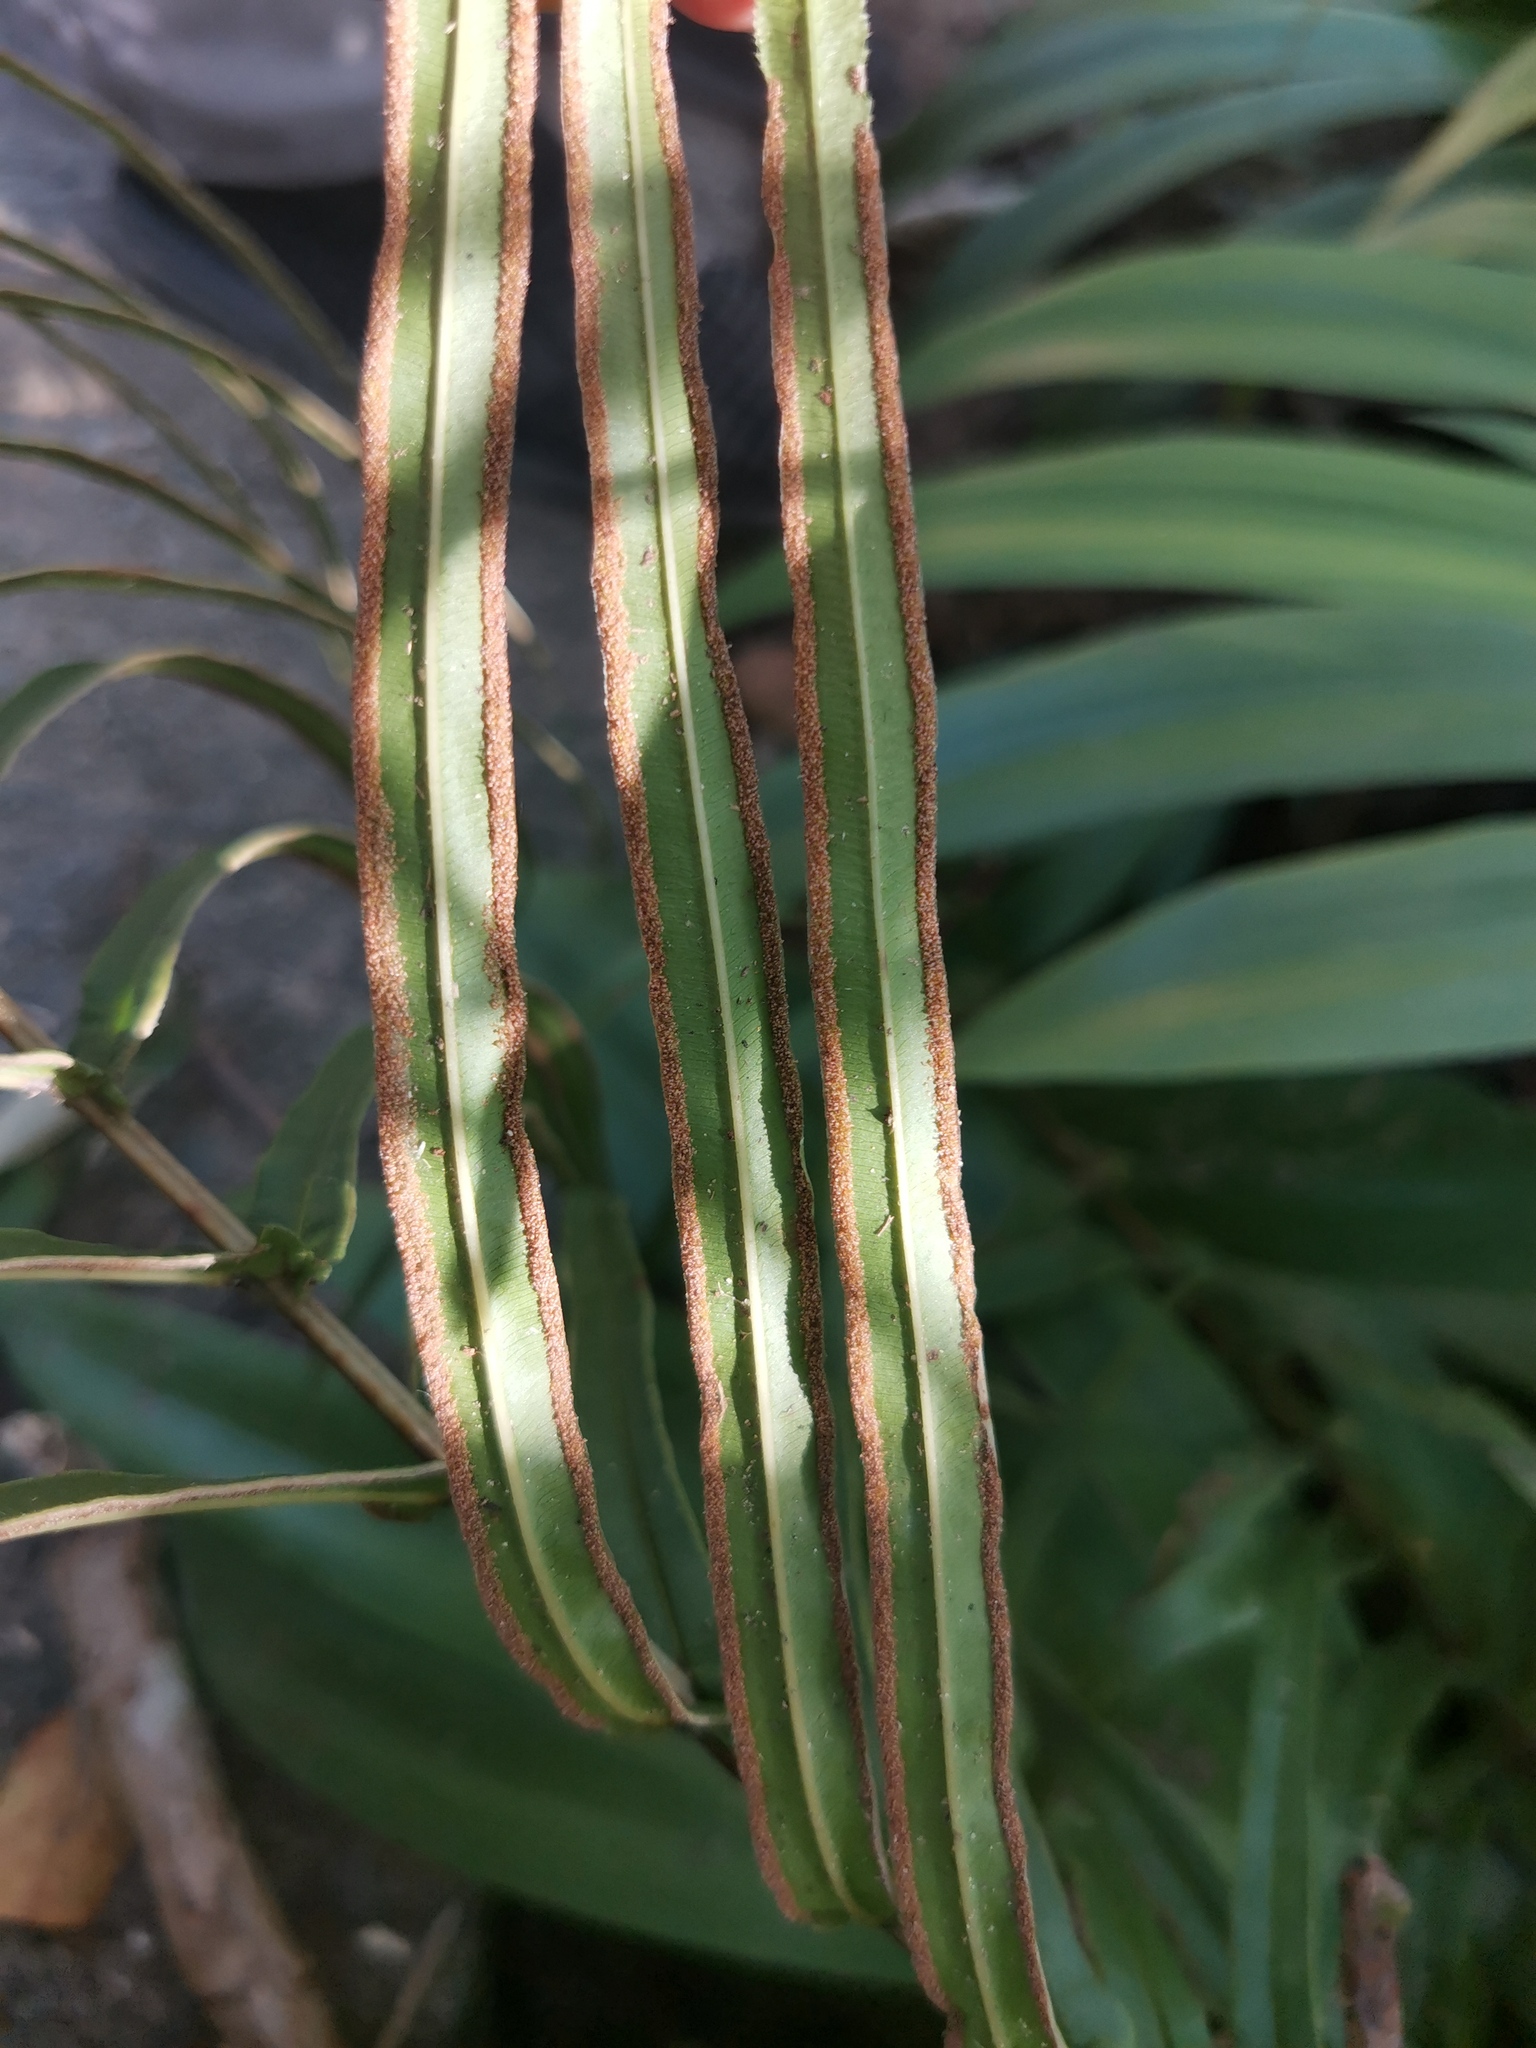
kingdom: Plantae
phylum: Tracheophyta
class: Polypodiopsida
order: Polypodiales
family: Pteridaceae
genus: Pteris
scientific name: Pteris vittata
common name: Ladder brake
